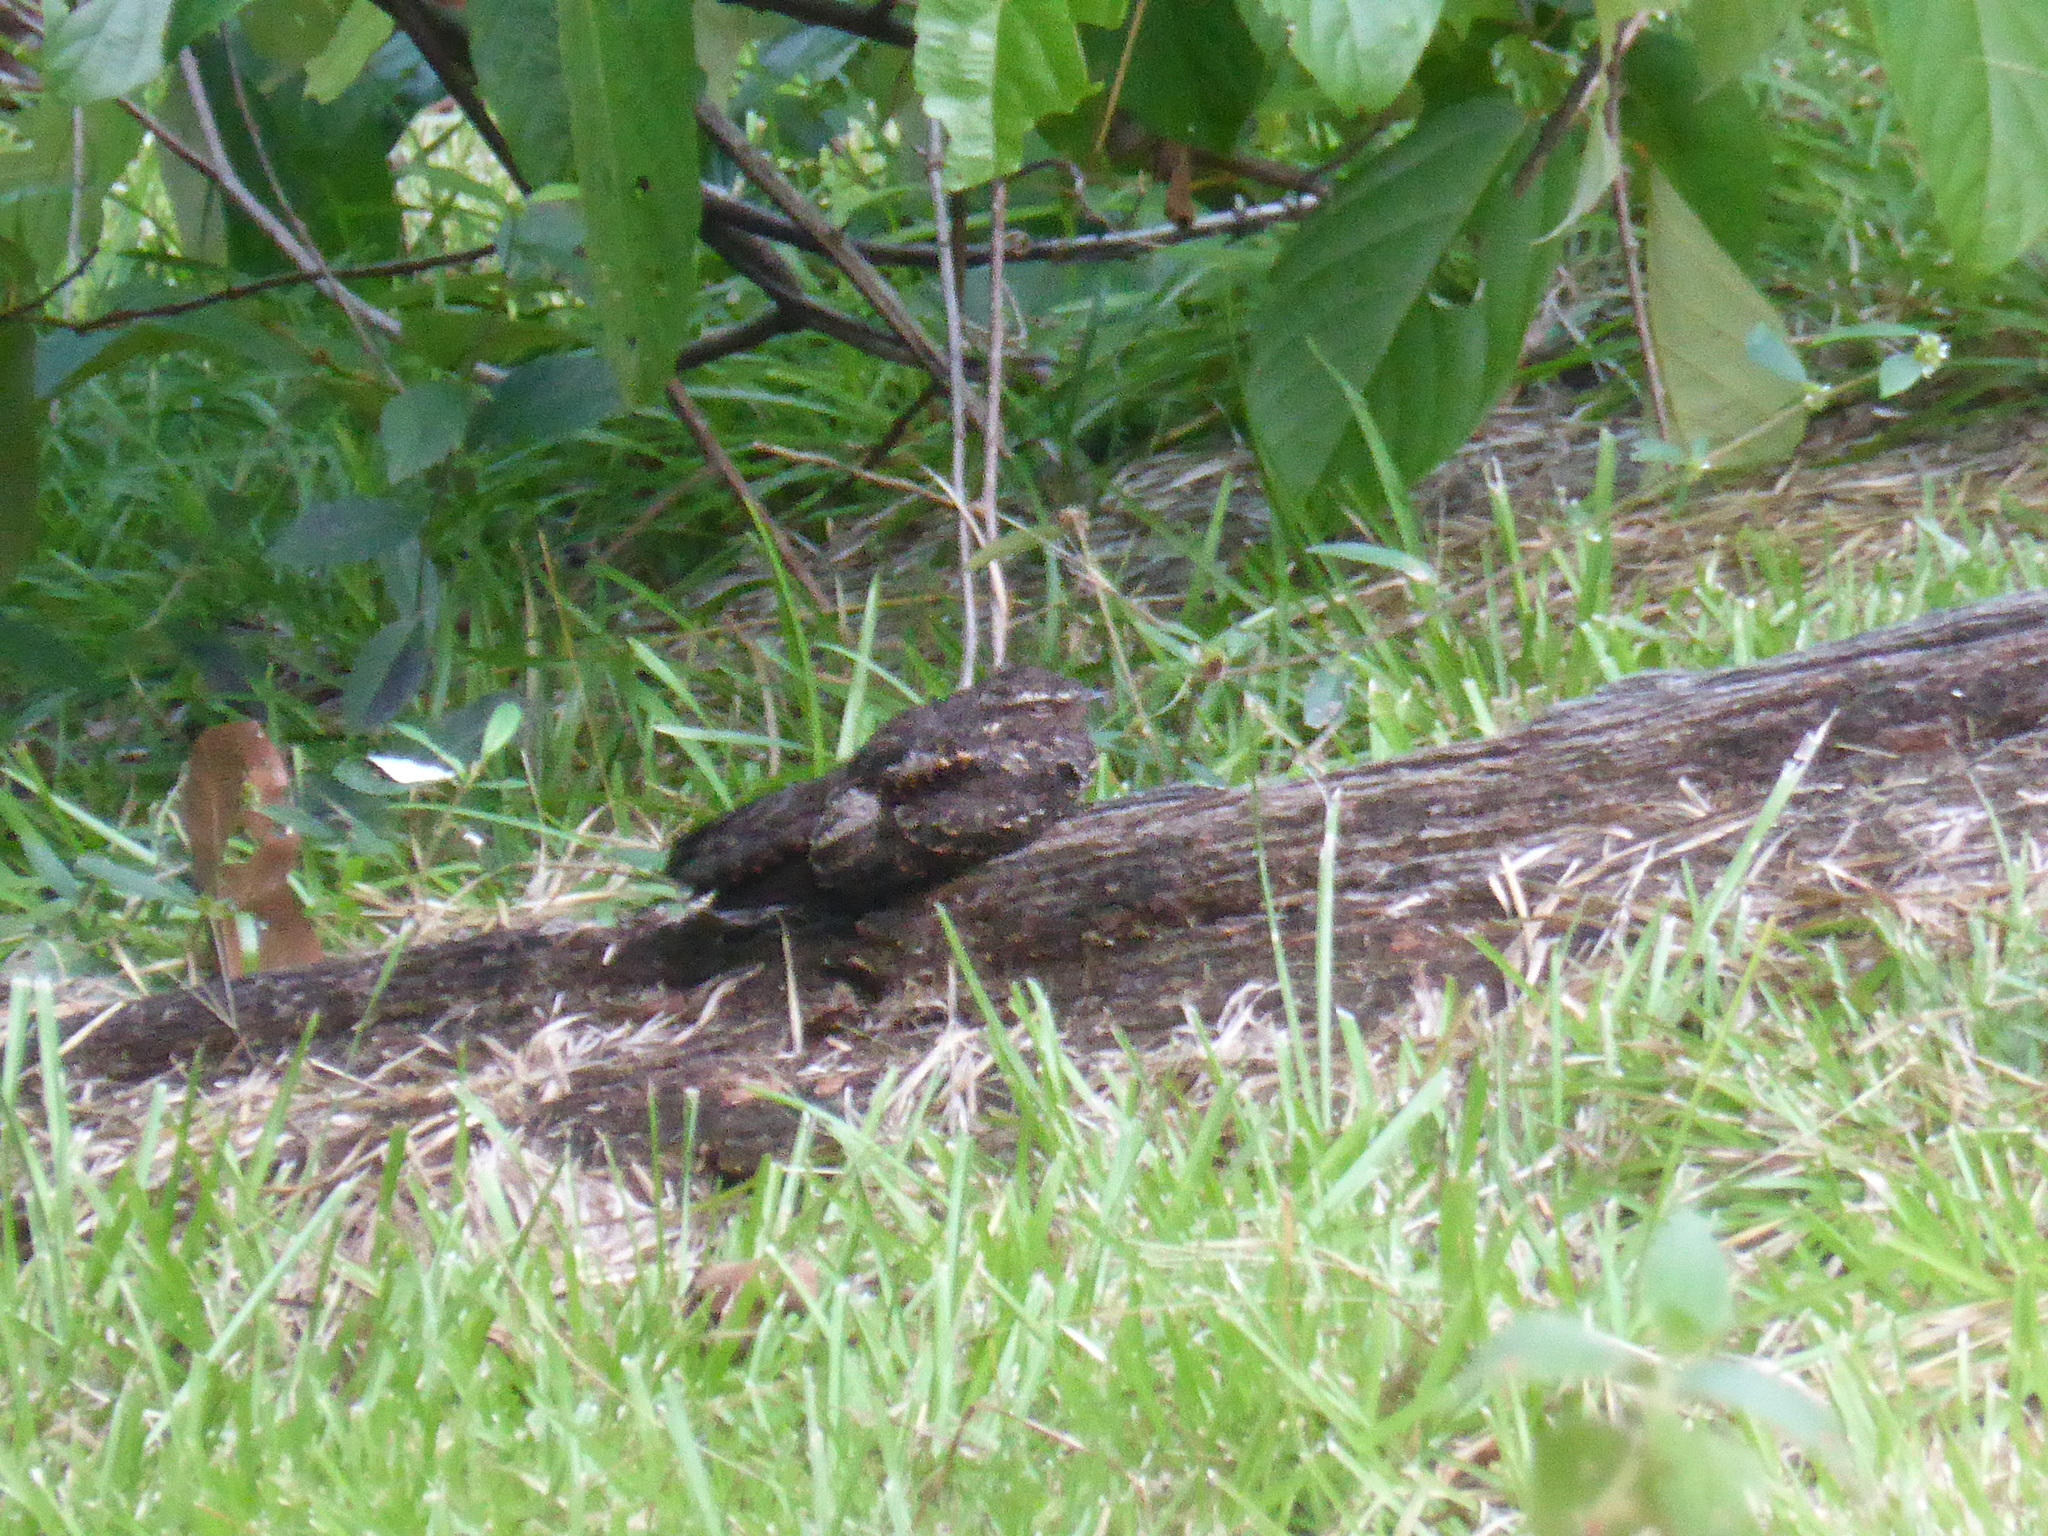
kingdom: Animalia
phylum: Chordata
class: Aves
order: Caprimulgiformes
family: Caprimulgidae
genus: Nyctipolus
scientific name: Nyctipolus nigrescens
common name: Blackish nightjar
